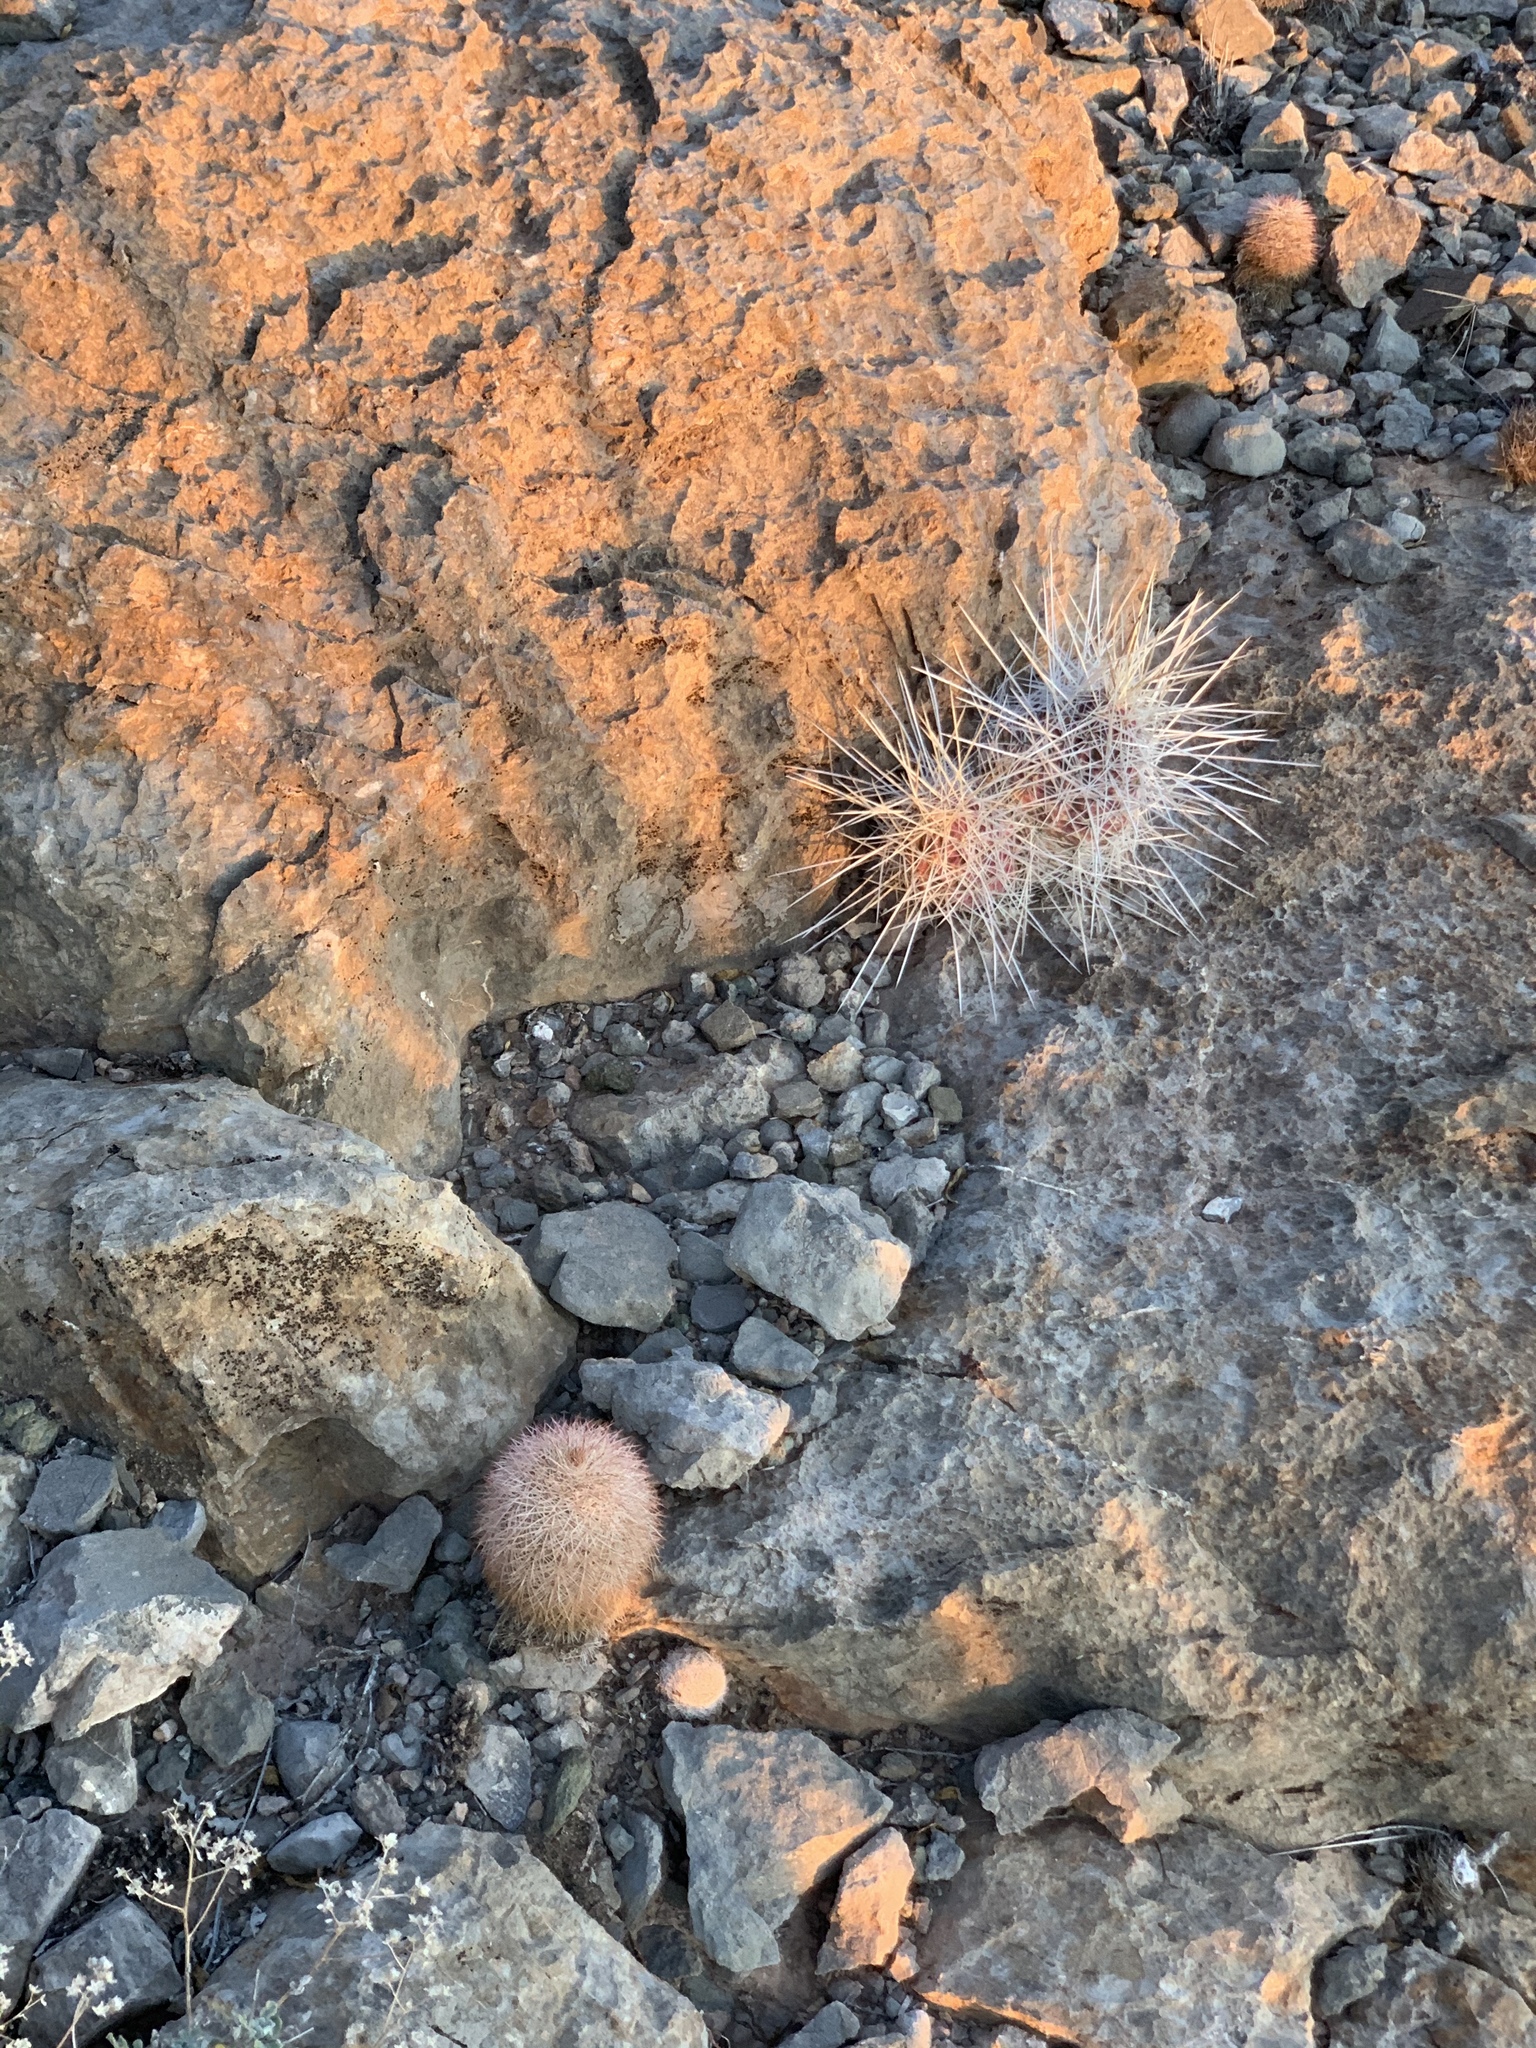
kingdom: Plantae
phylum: Tracheophyta
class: Magnoliopsida
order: Caryophyllales
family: Cactaceae
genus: Echinocereus
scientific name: Echinocereus stramineus
